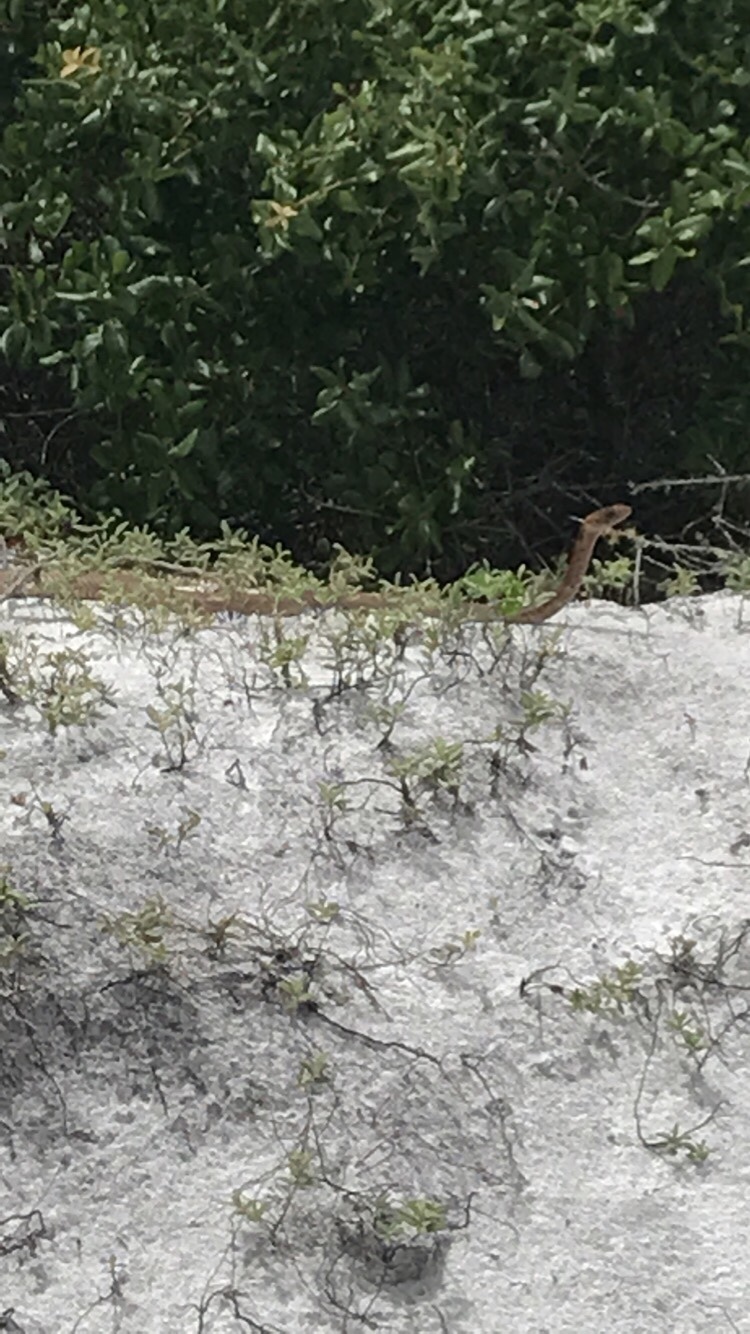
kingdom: Animalia
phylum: Chordata
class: Squamata
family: Colubridae
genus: Masticophis
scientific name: Masticophis flagellum
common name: Coachwhip
